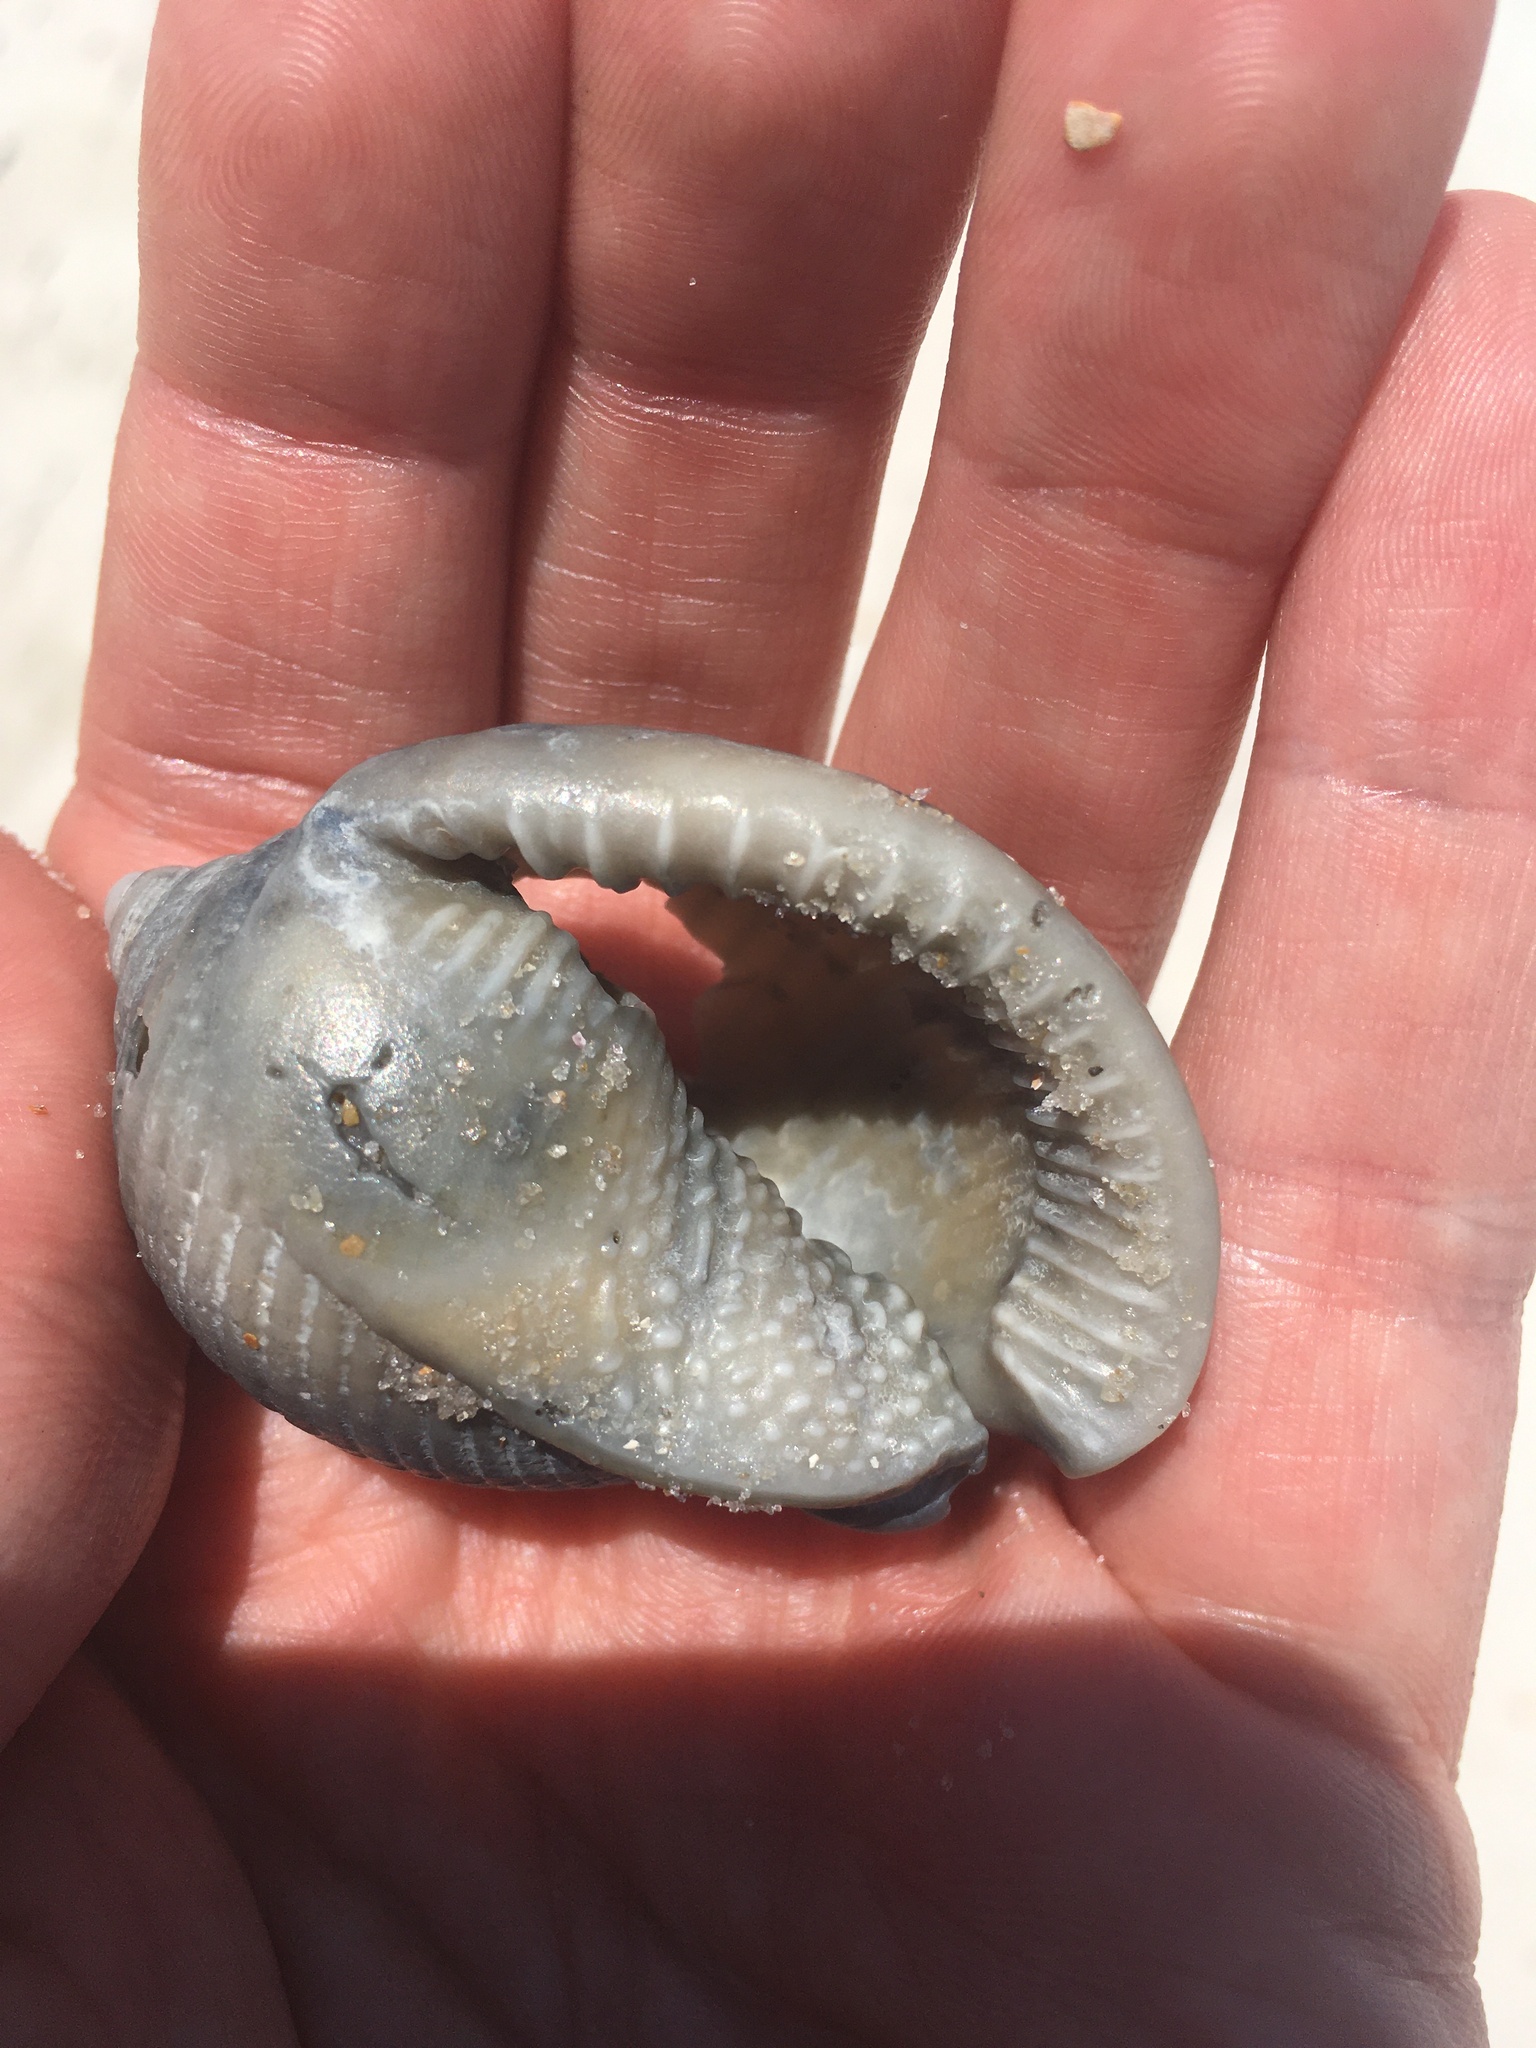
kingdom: Animalia
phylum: Mollusca
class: Gastropoda
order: Littorinimorpha
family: Cassidae
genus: Semicassis
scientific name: Semicassis granulata
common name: Scotch bonnet
